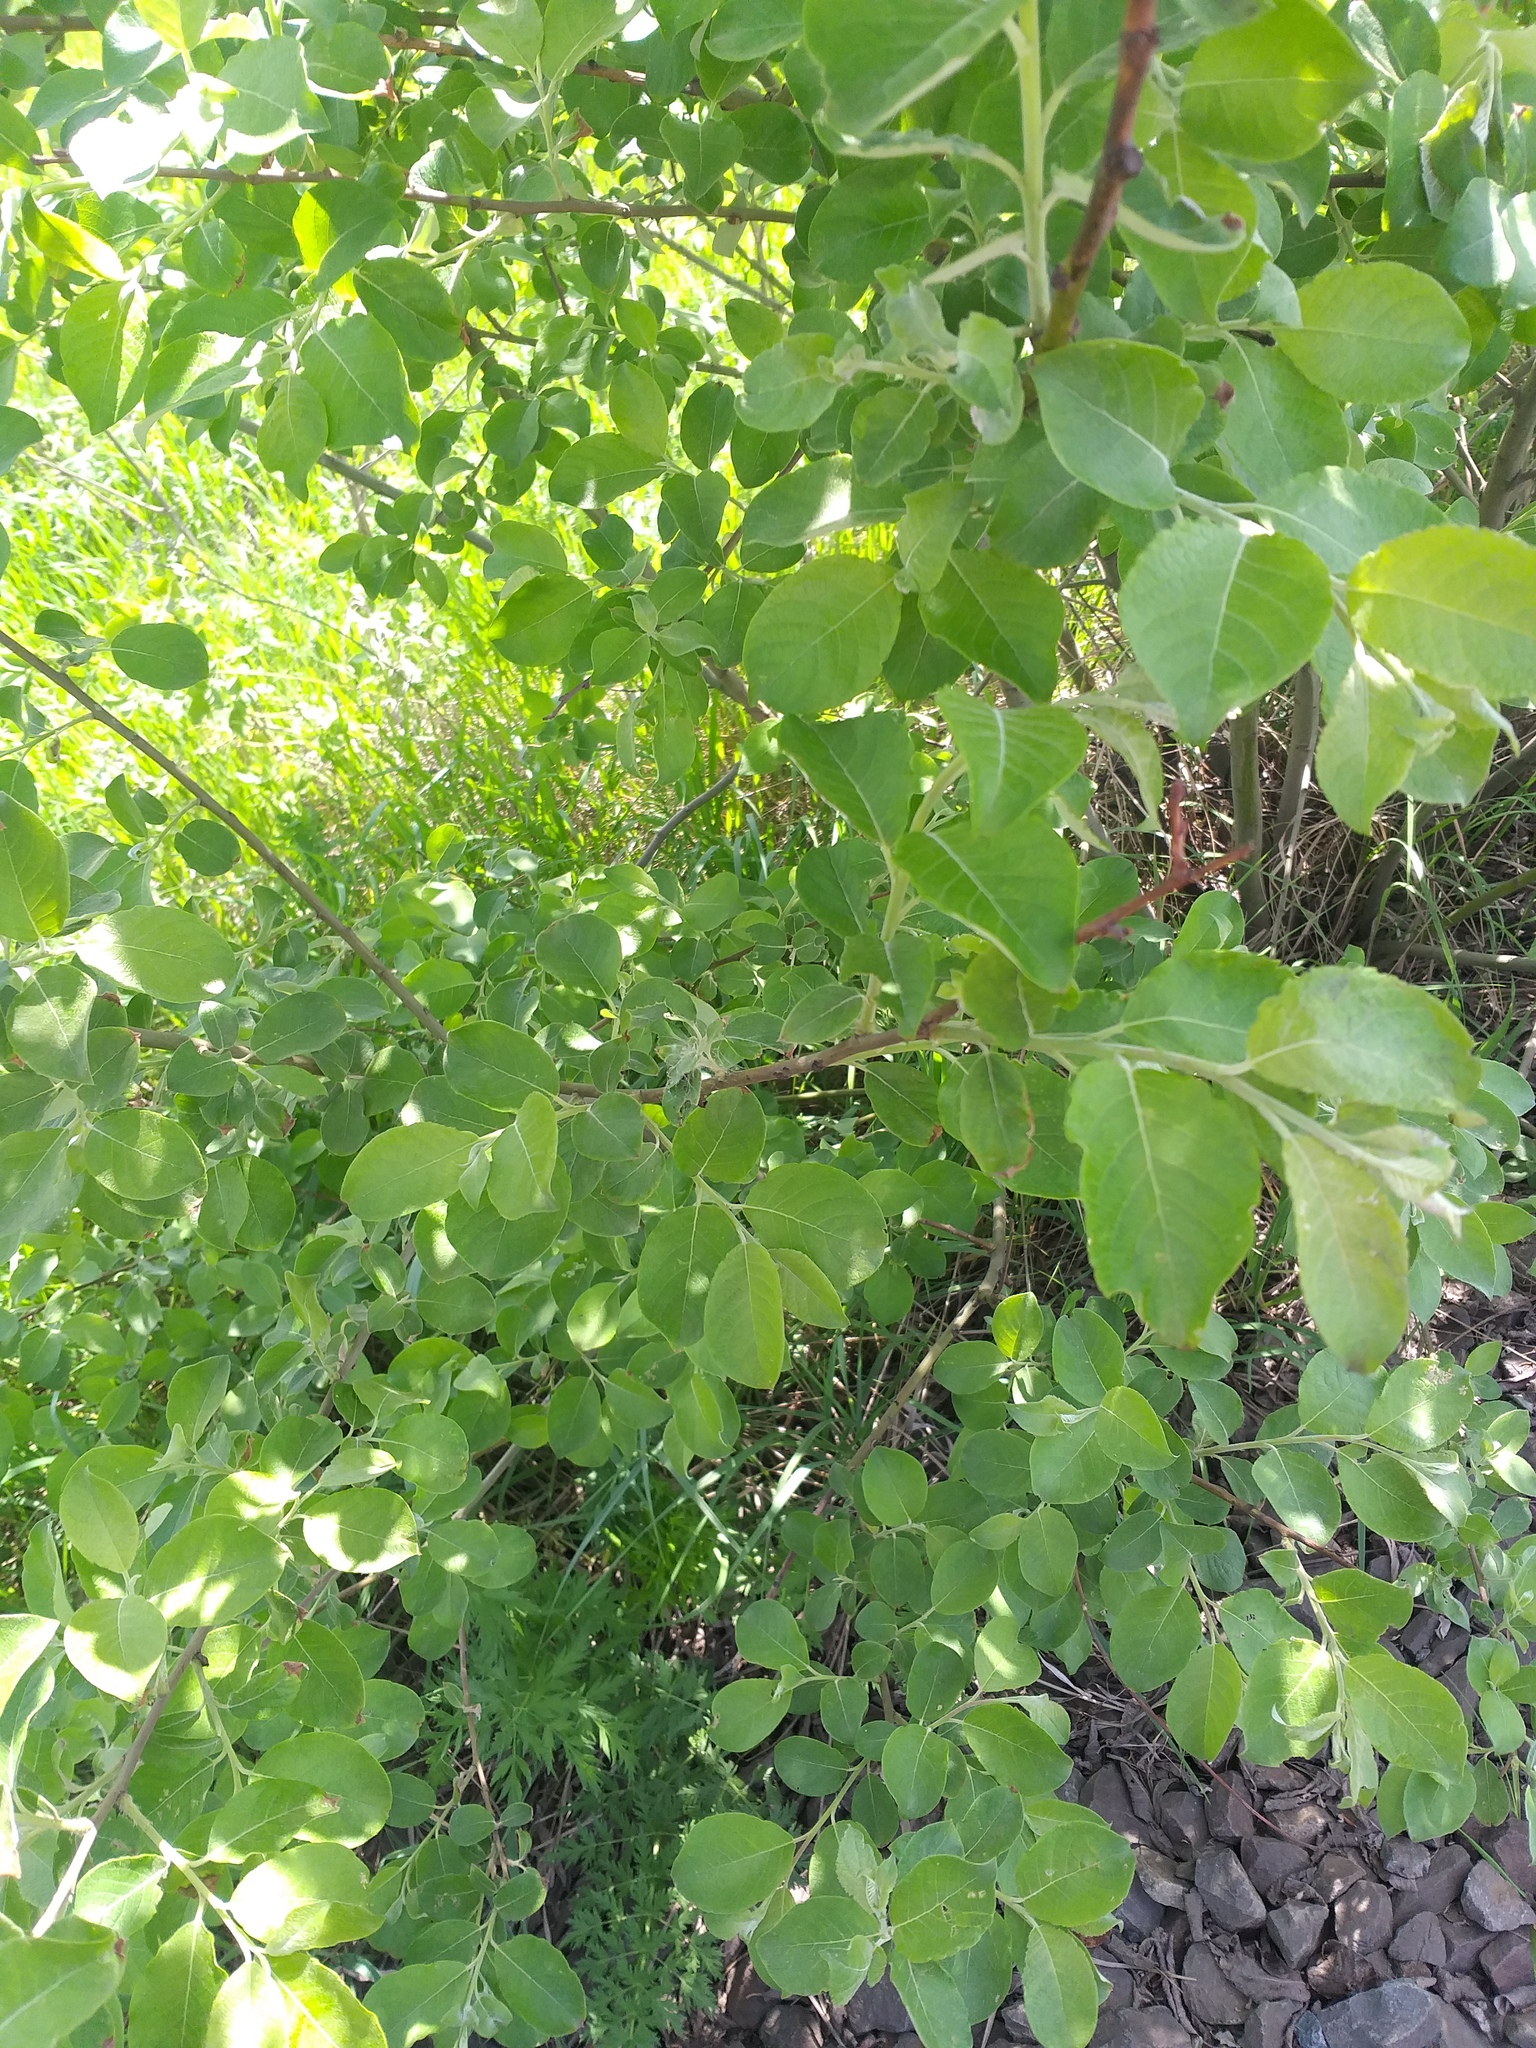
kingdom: Plantae
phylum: Tracheophyta
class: Magnoliopsida
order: Malpighiales
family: Salicaceae
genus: Salix
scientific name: Salix caprea
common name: Goat willow
